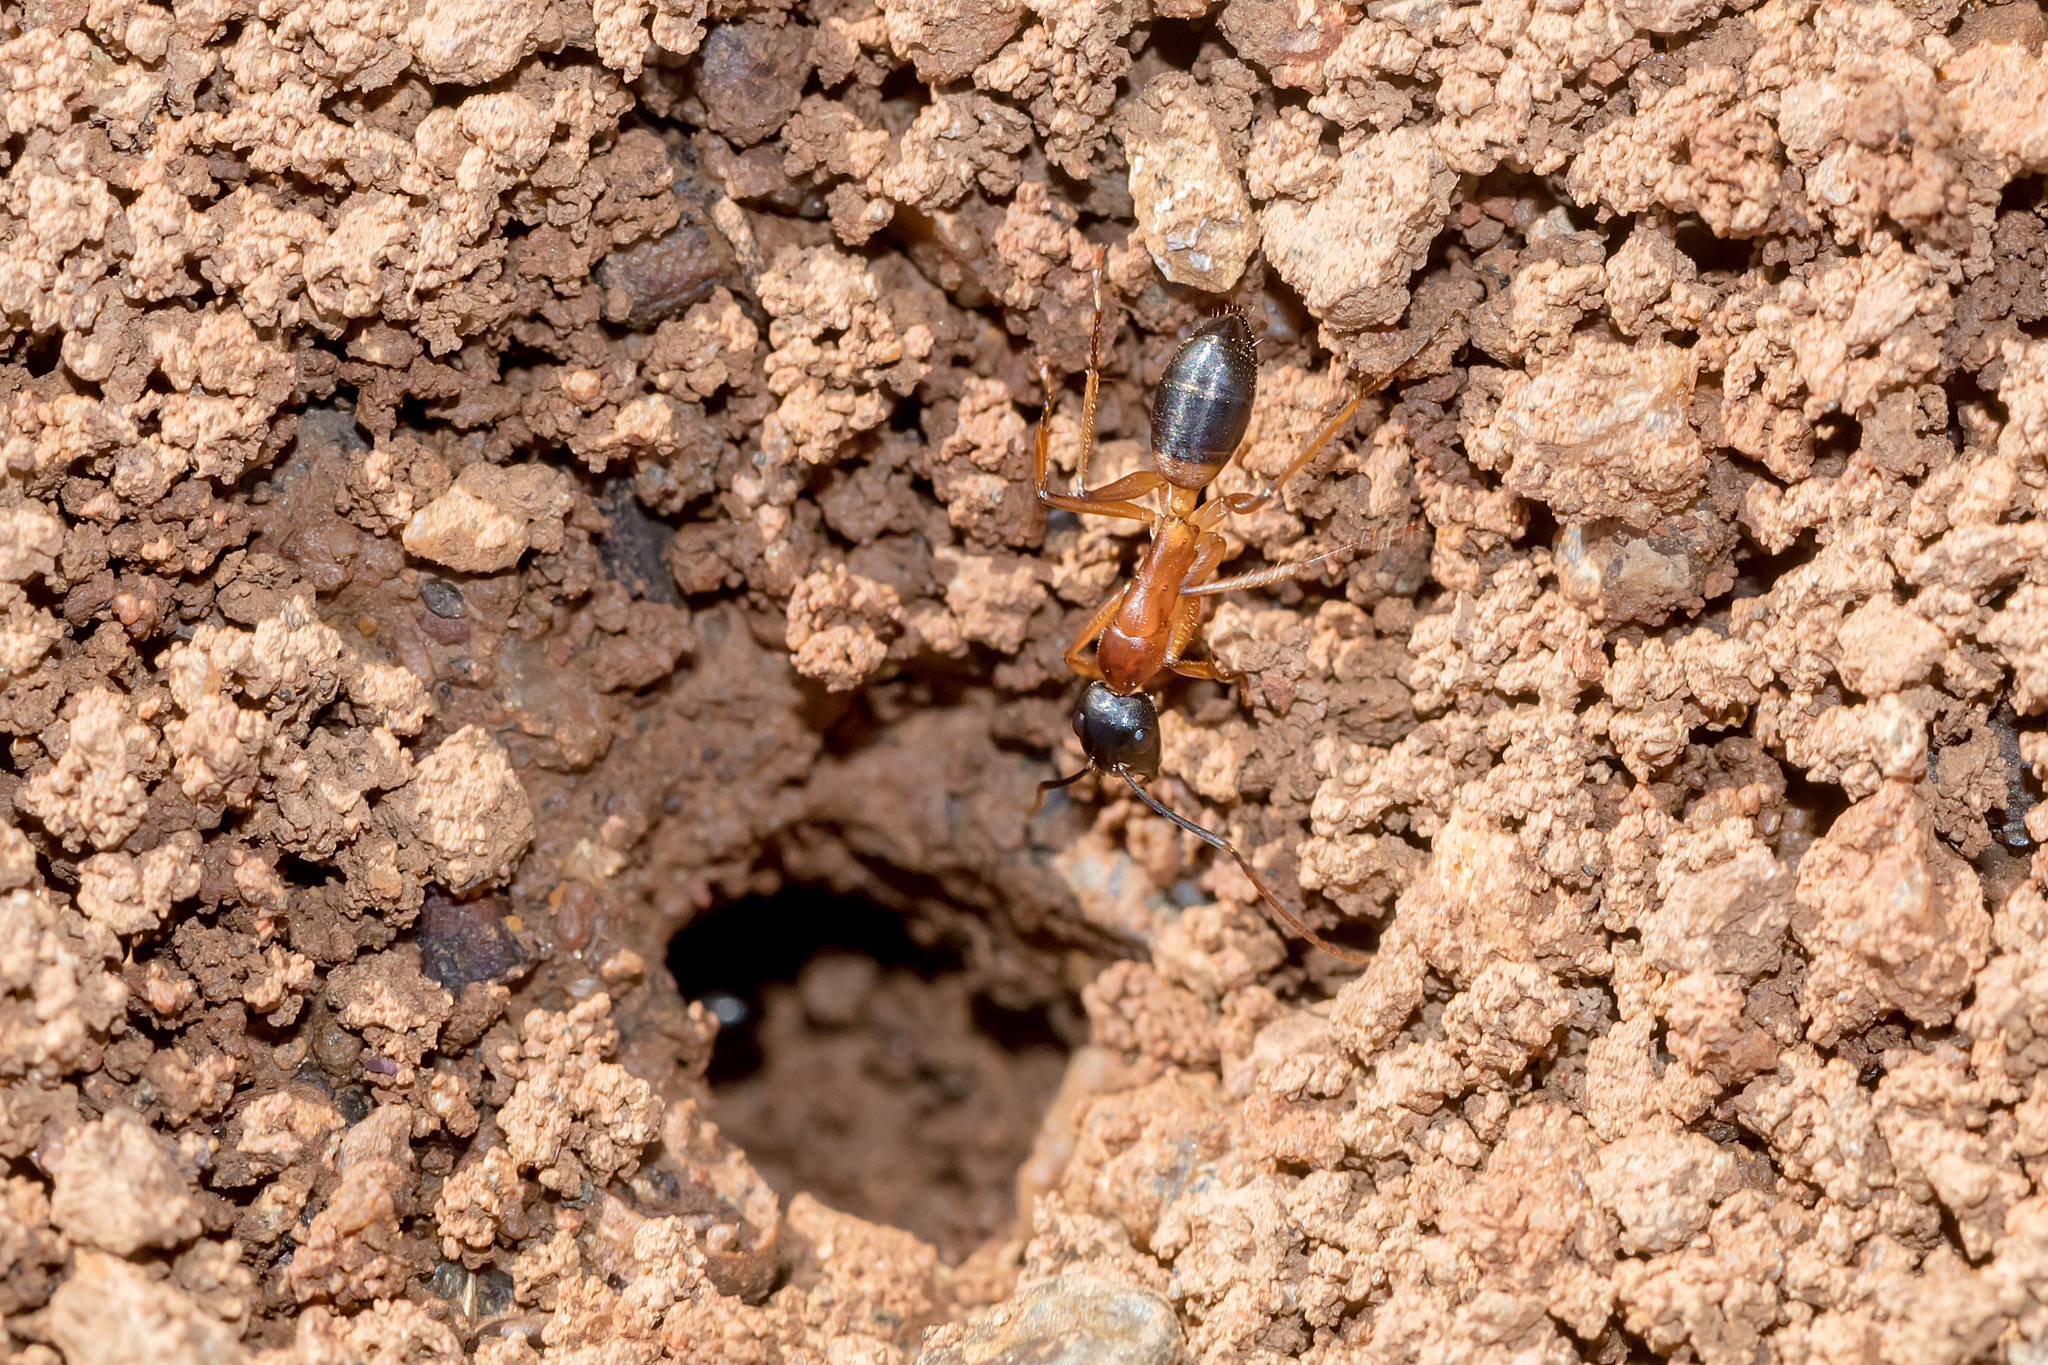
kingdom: Animalia
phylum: Arthropoda
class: Insecta
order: Hymenoptera
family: Formicidae
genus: Camponotus
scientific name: Camponotus consobrinus
